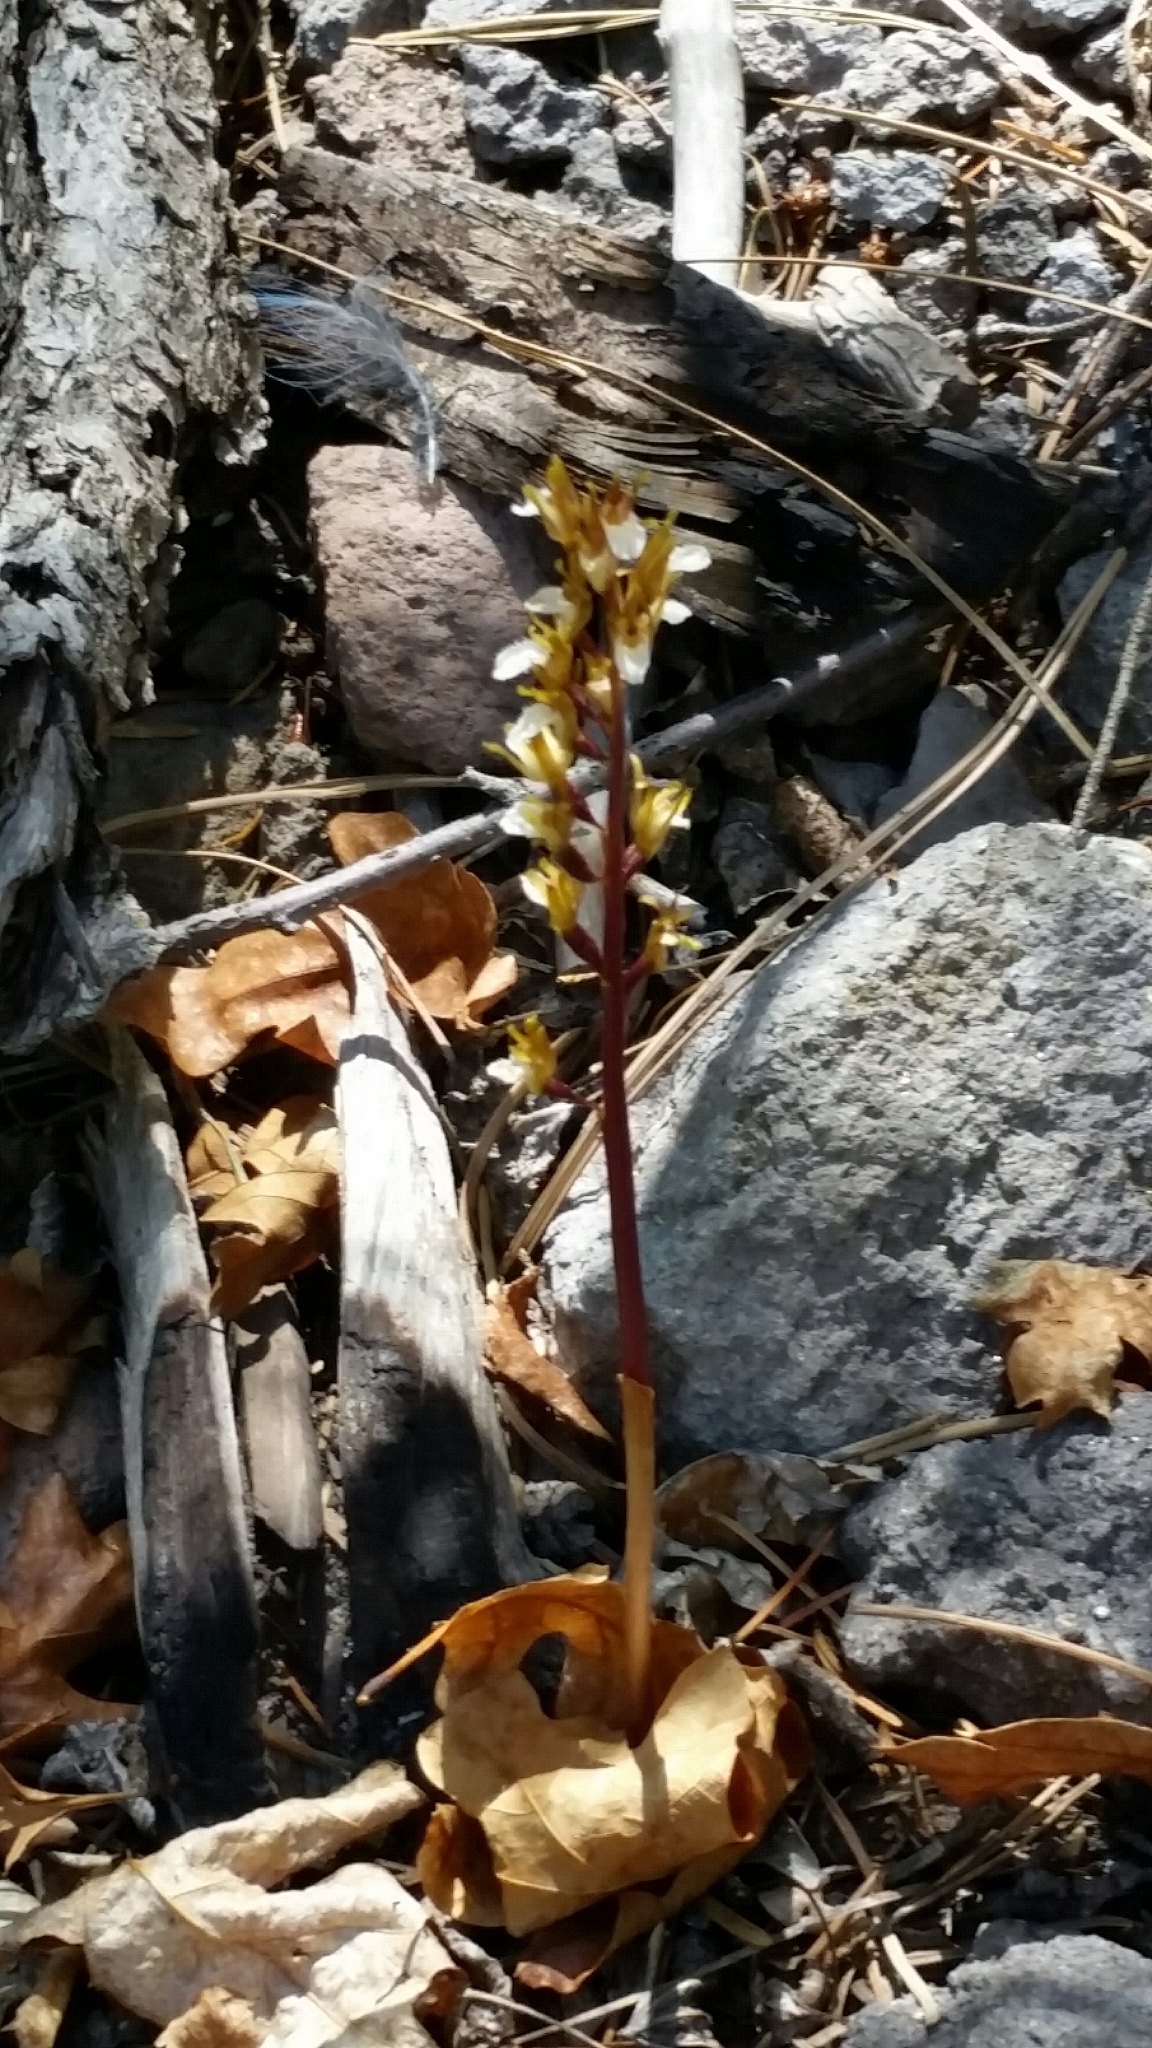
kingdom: Plantae
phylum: Tracheophyta
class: Liliopsida
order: Asparagales
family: Orchidaceae
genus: Corallorhiza
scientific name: Corallorhiza wisteriana
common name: Spring coralroot
